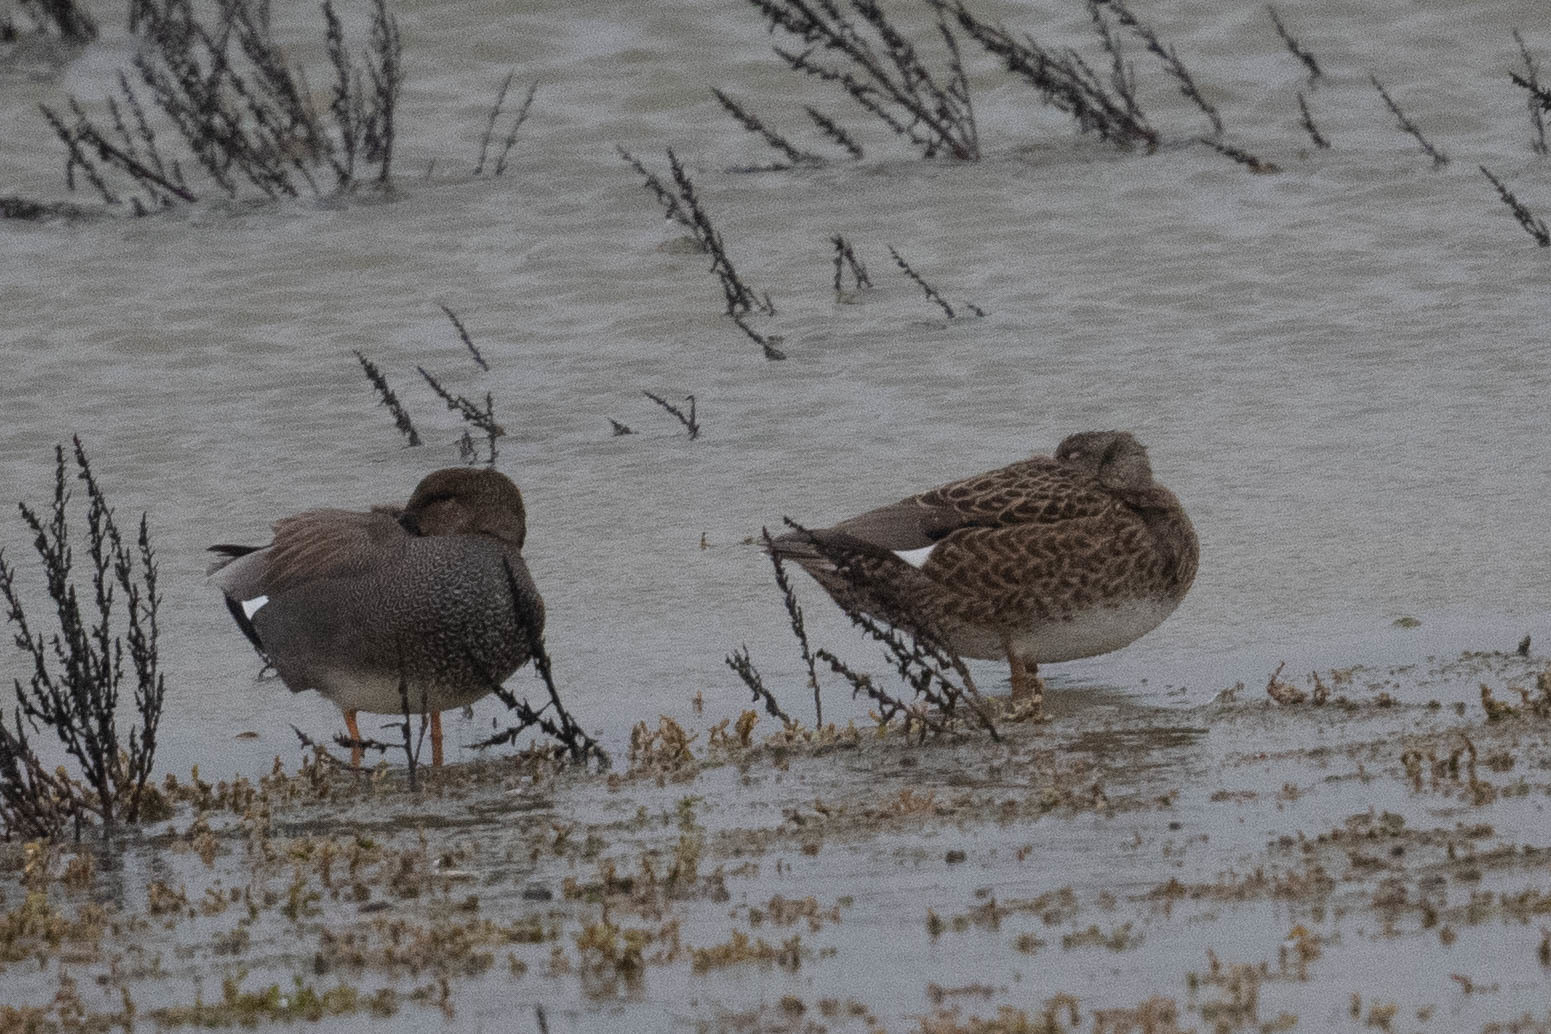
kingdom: Animalia
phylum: Chordata
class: Aves
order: Anseriformes
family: Anatidae
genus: Mareca
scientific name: Mareca strepera
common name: Gadwall
